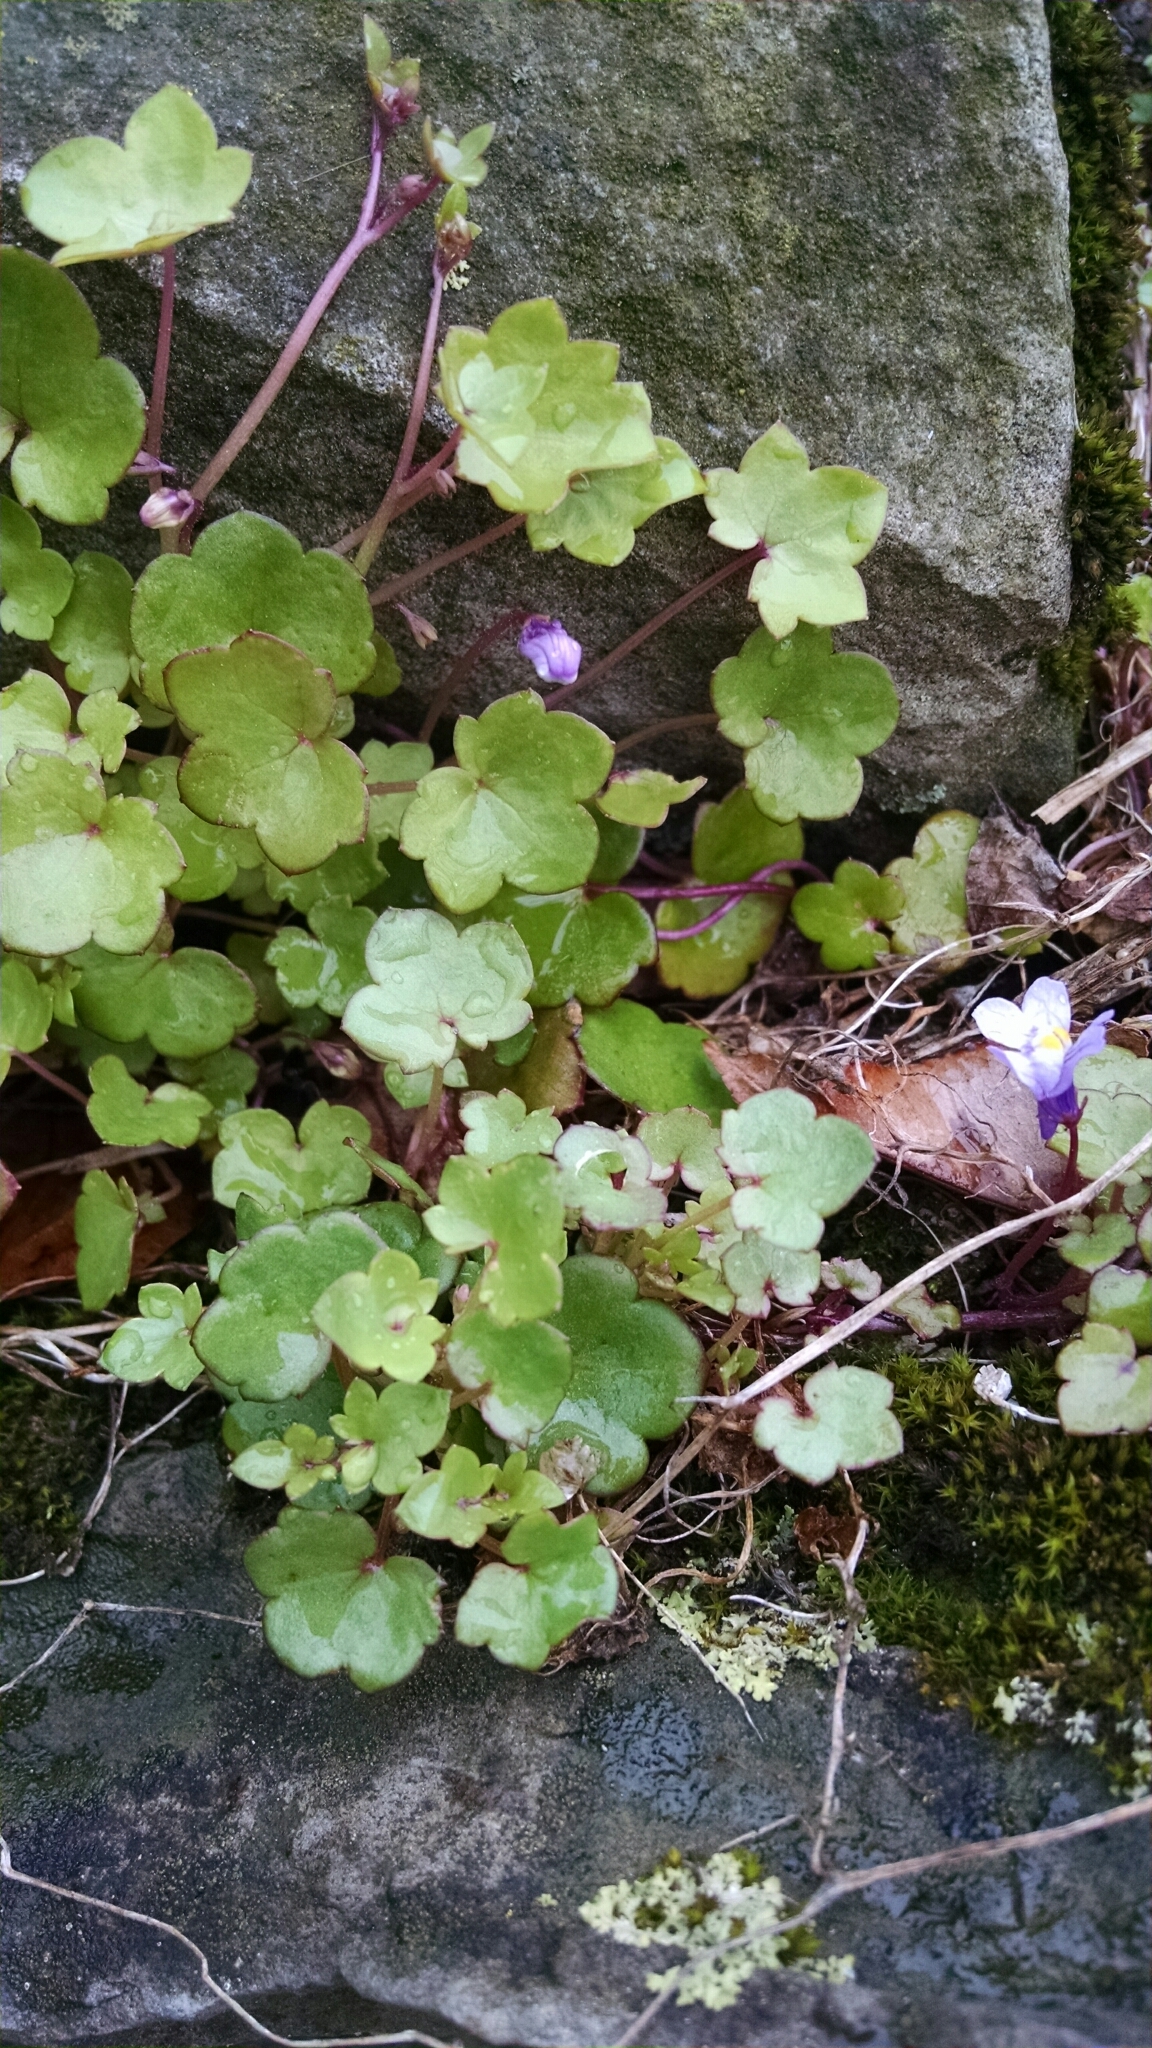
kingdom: Plantae
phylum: Tracheophyta
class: Magnoliopsida
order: Lamiales
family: Plantaginaceae
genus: Cymbalaria
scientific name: Cymbalaria muralis
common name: Ivy-leaved toadflax
